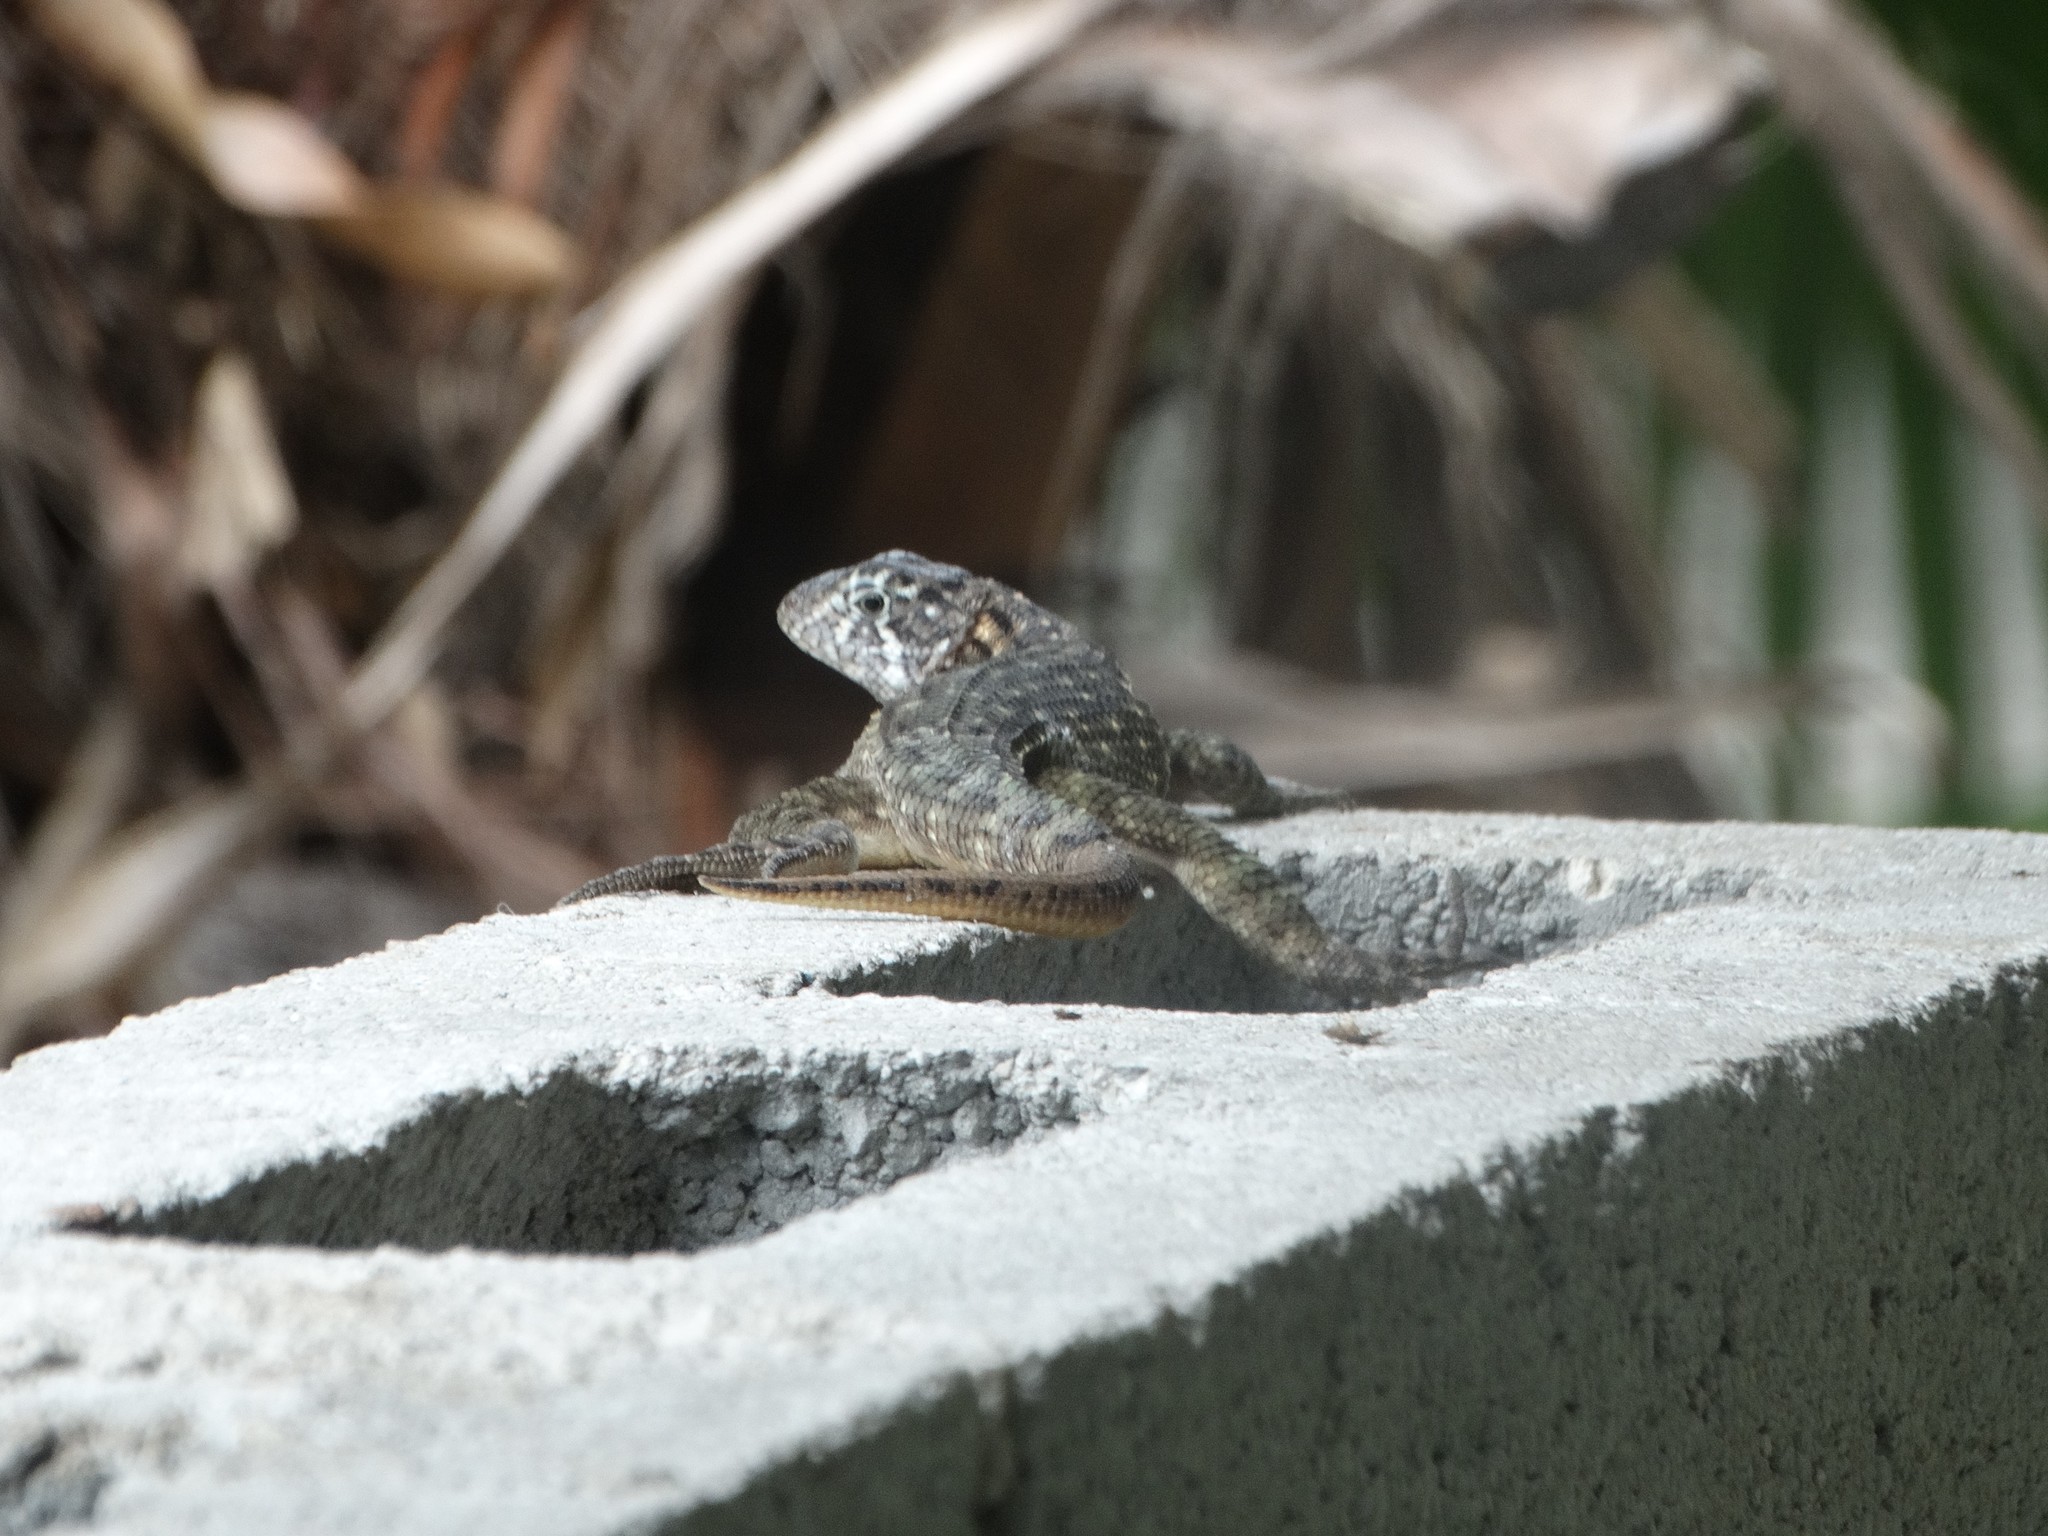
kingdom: Animalia
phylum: Chordata
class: Squamata
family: Leiocephalidae
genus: Leiocephalus
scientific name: Leiocephalus carinatus
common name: Northern curly-tailed lizard
